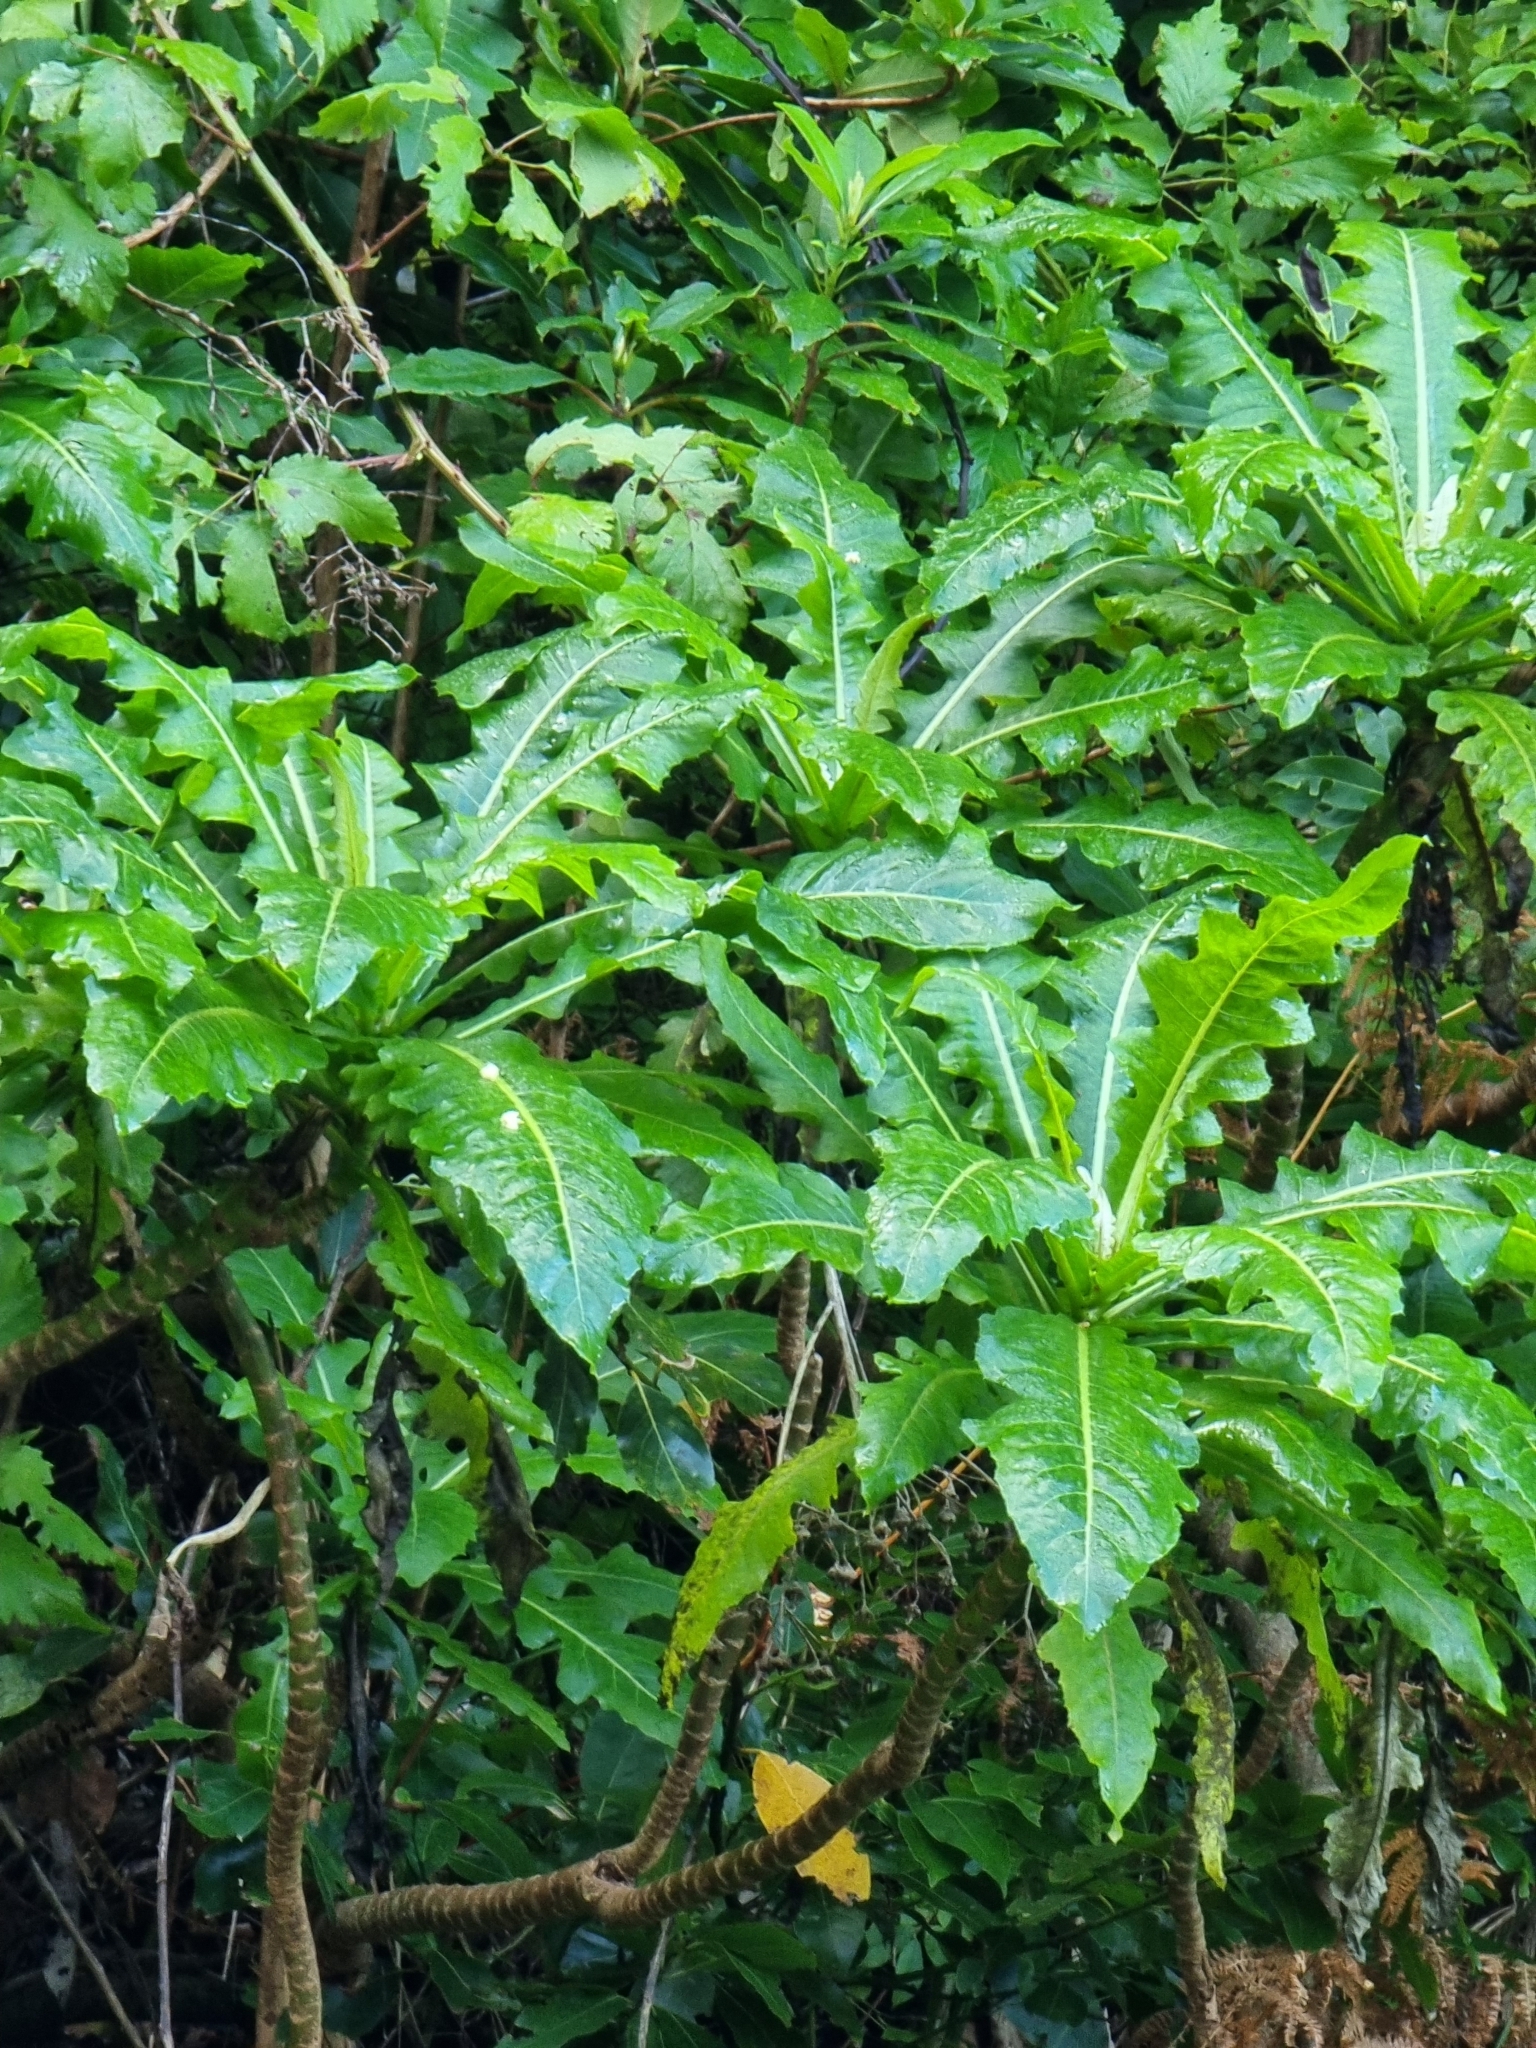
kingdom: Plantae
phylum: Tracheophyta
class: Magnoliopsida
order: Asterales
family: Asteraceae
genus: Sonchus
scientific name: Sonchus fruticosus
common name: Shrubby sow-thistle
